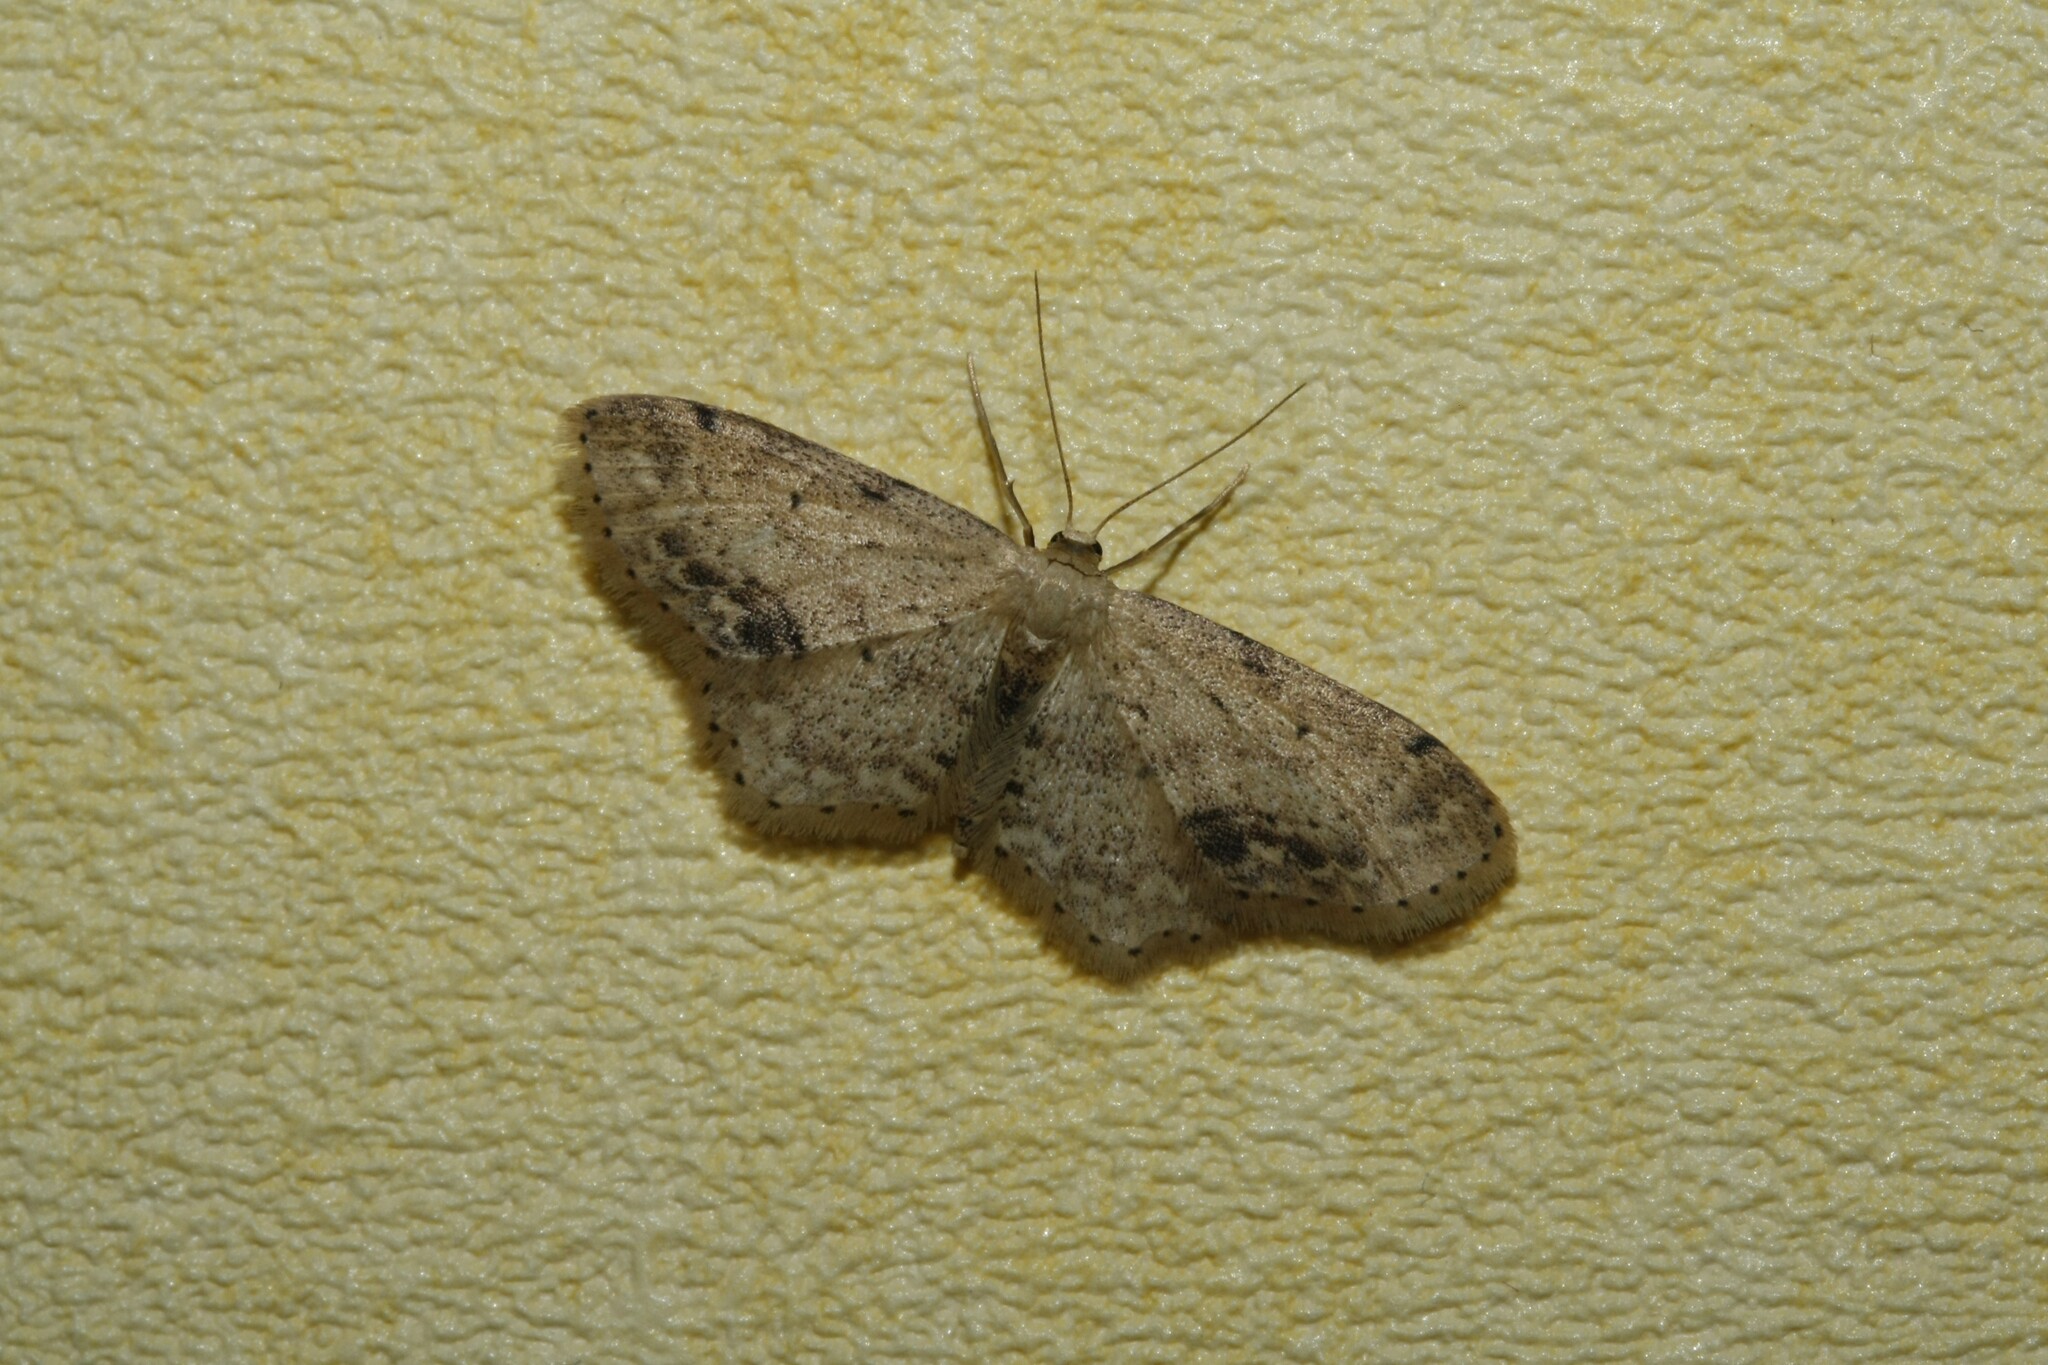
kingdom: Animalia
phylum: Arthropoda
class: Insecta
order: Lepidoptera
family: Geometridae
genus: Idaea
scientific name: Idaea dimidiata
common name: Single-dotted wave
